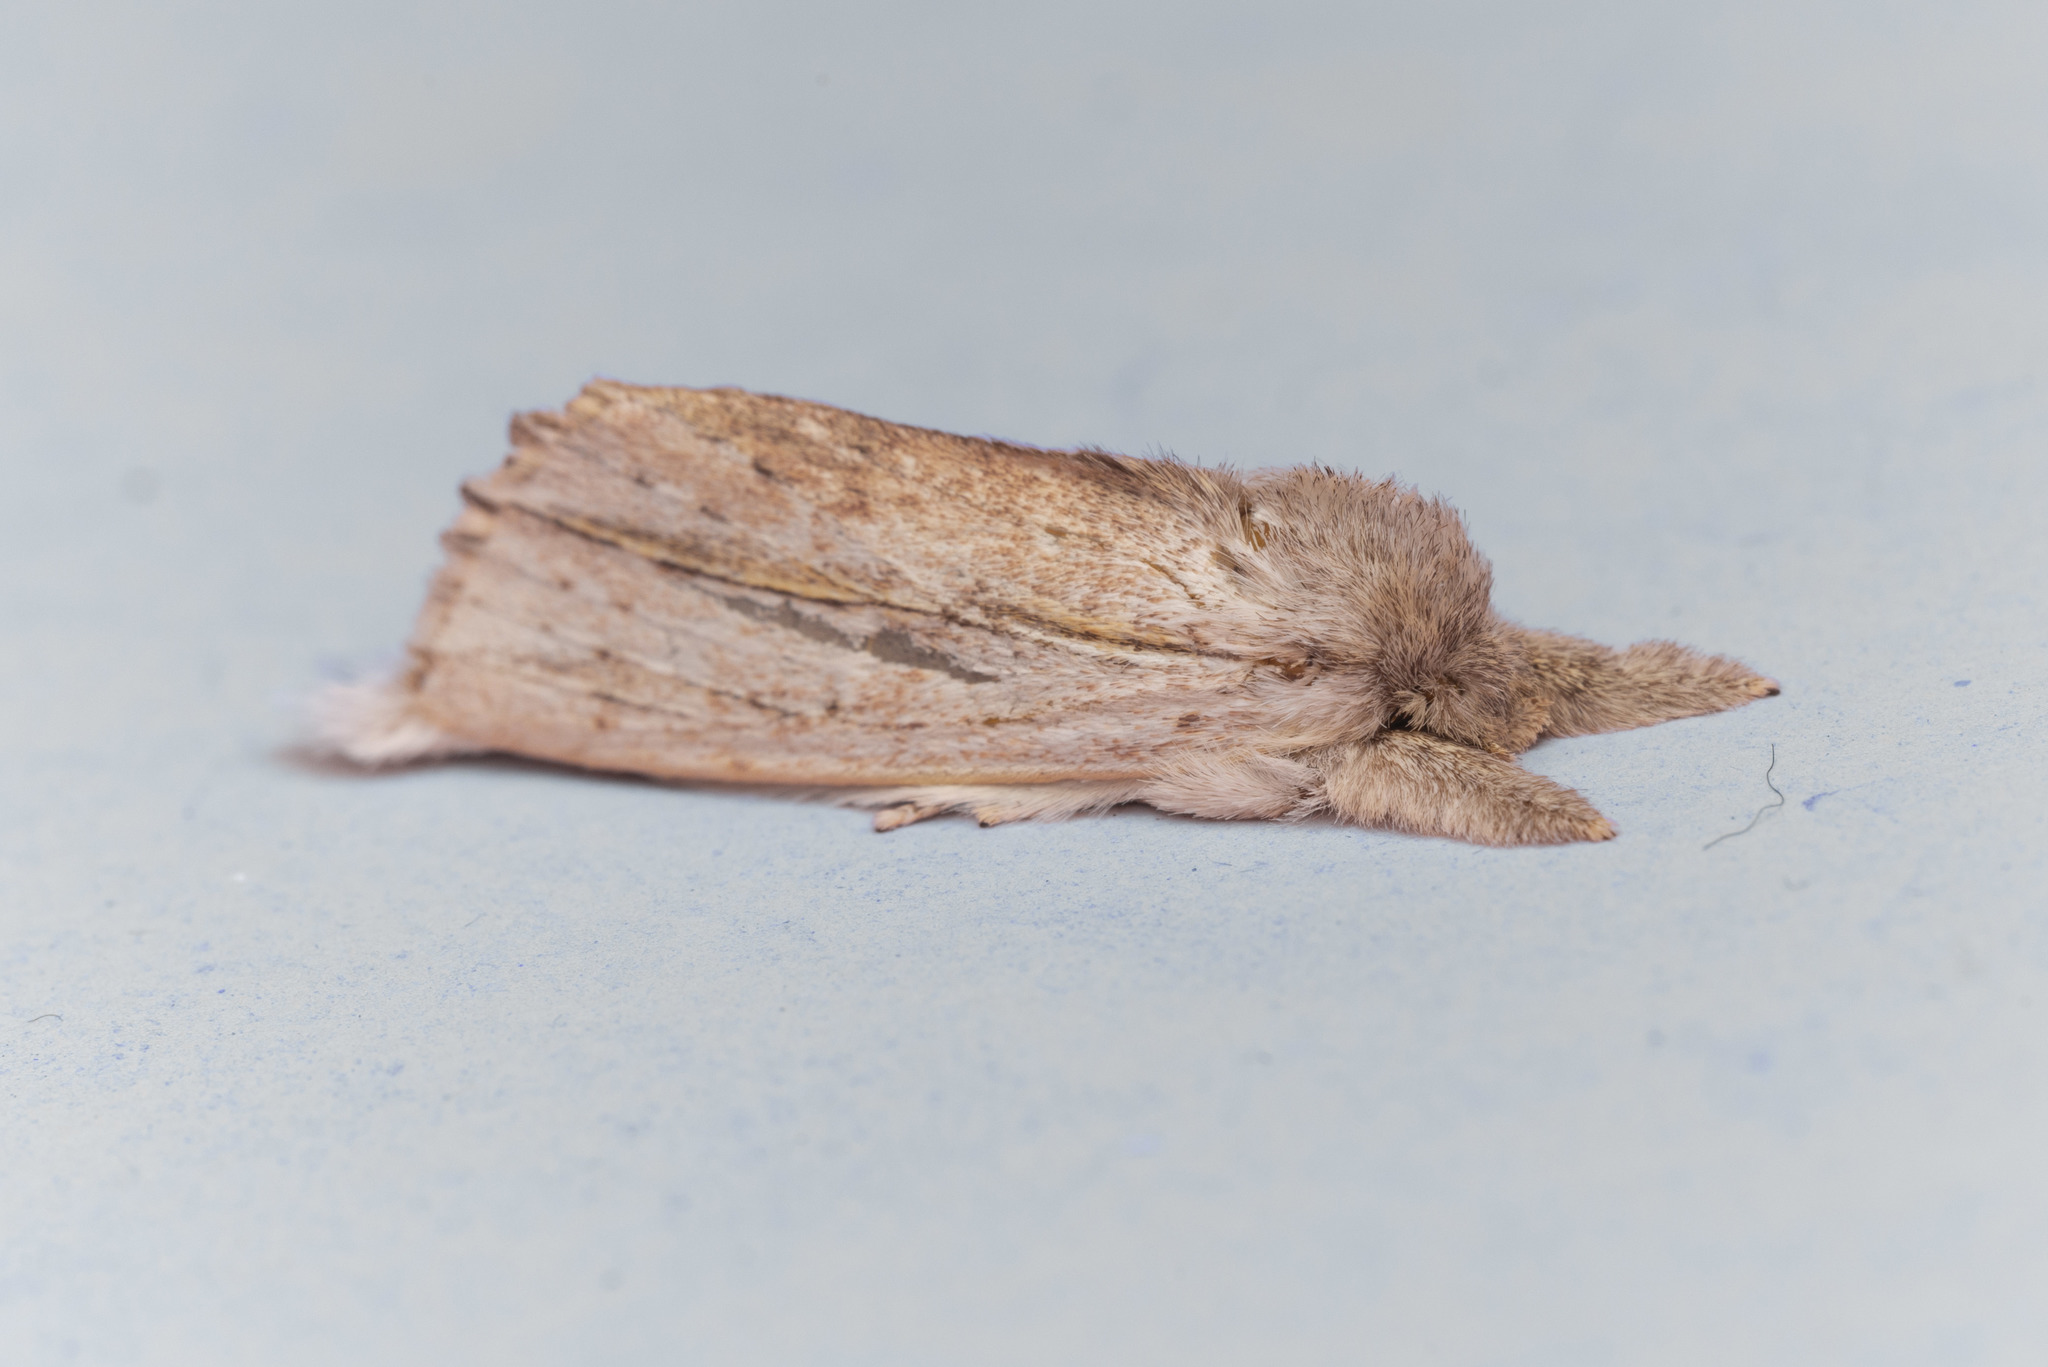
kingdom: Animalia
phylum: Arthropoda
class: Insecta
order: Lepidoptera
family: Notodontidae
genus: Ambadra
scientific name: Ambadra modesta
